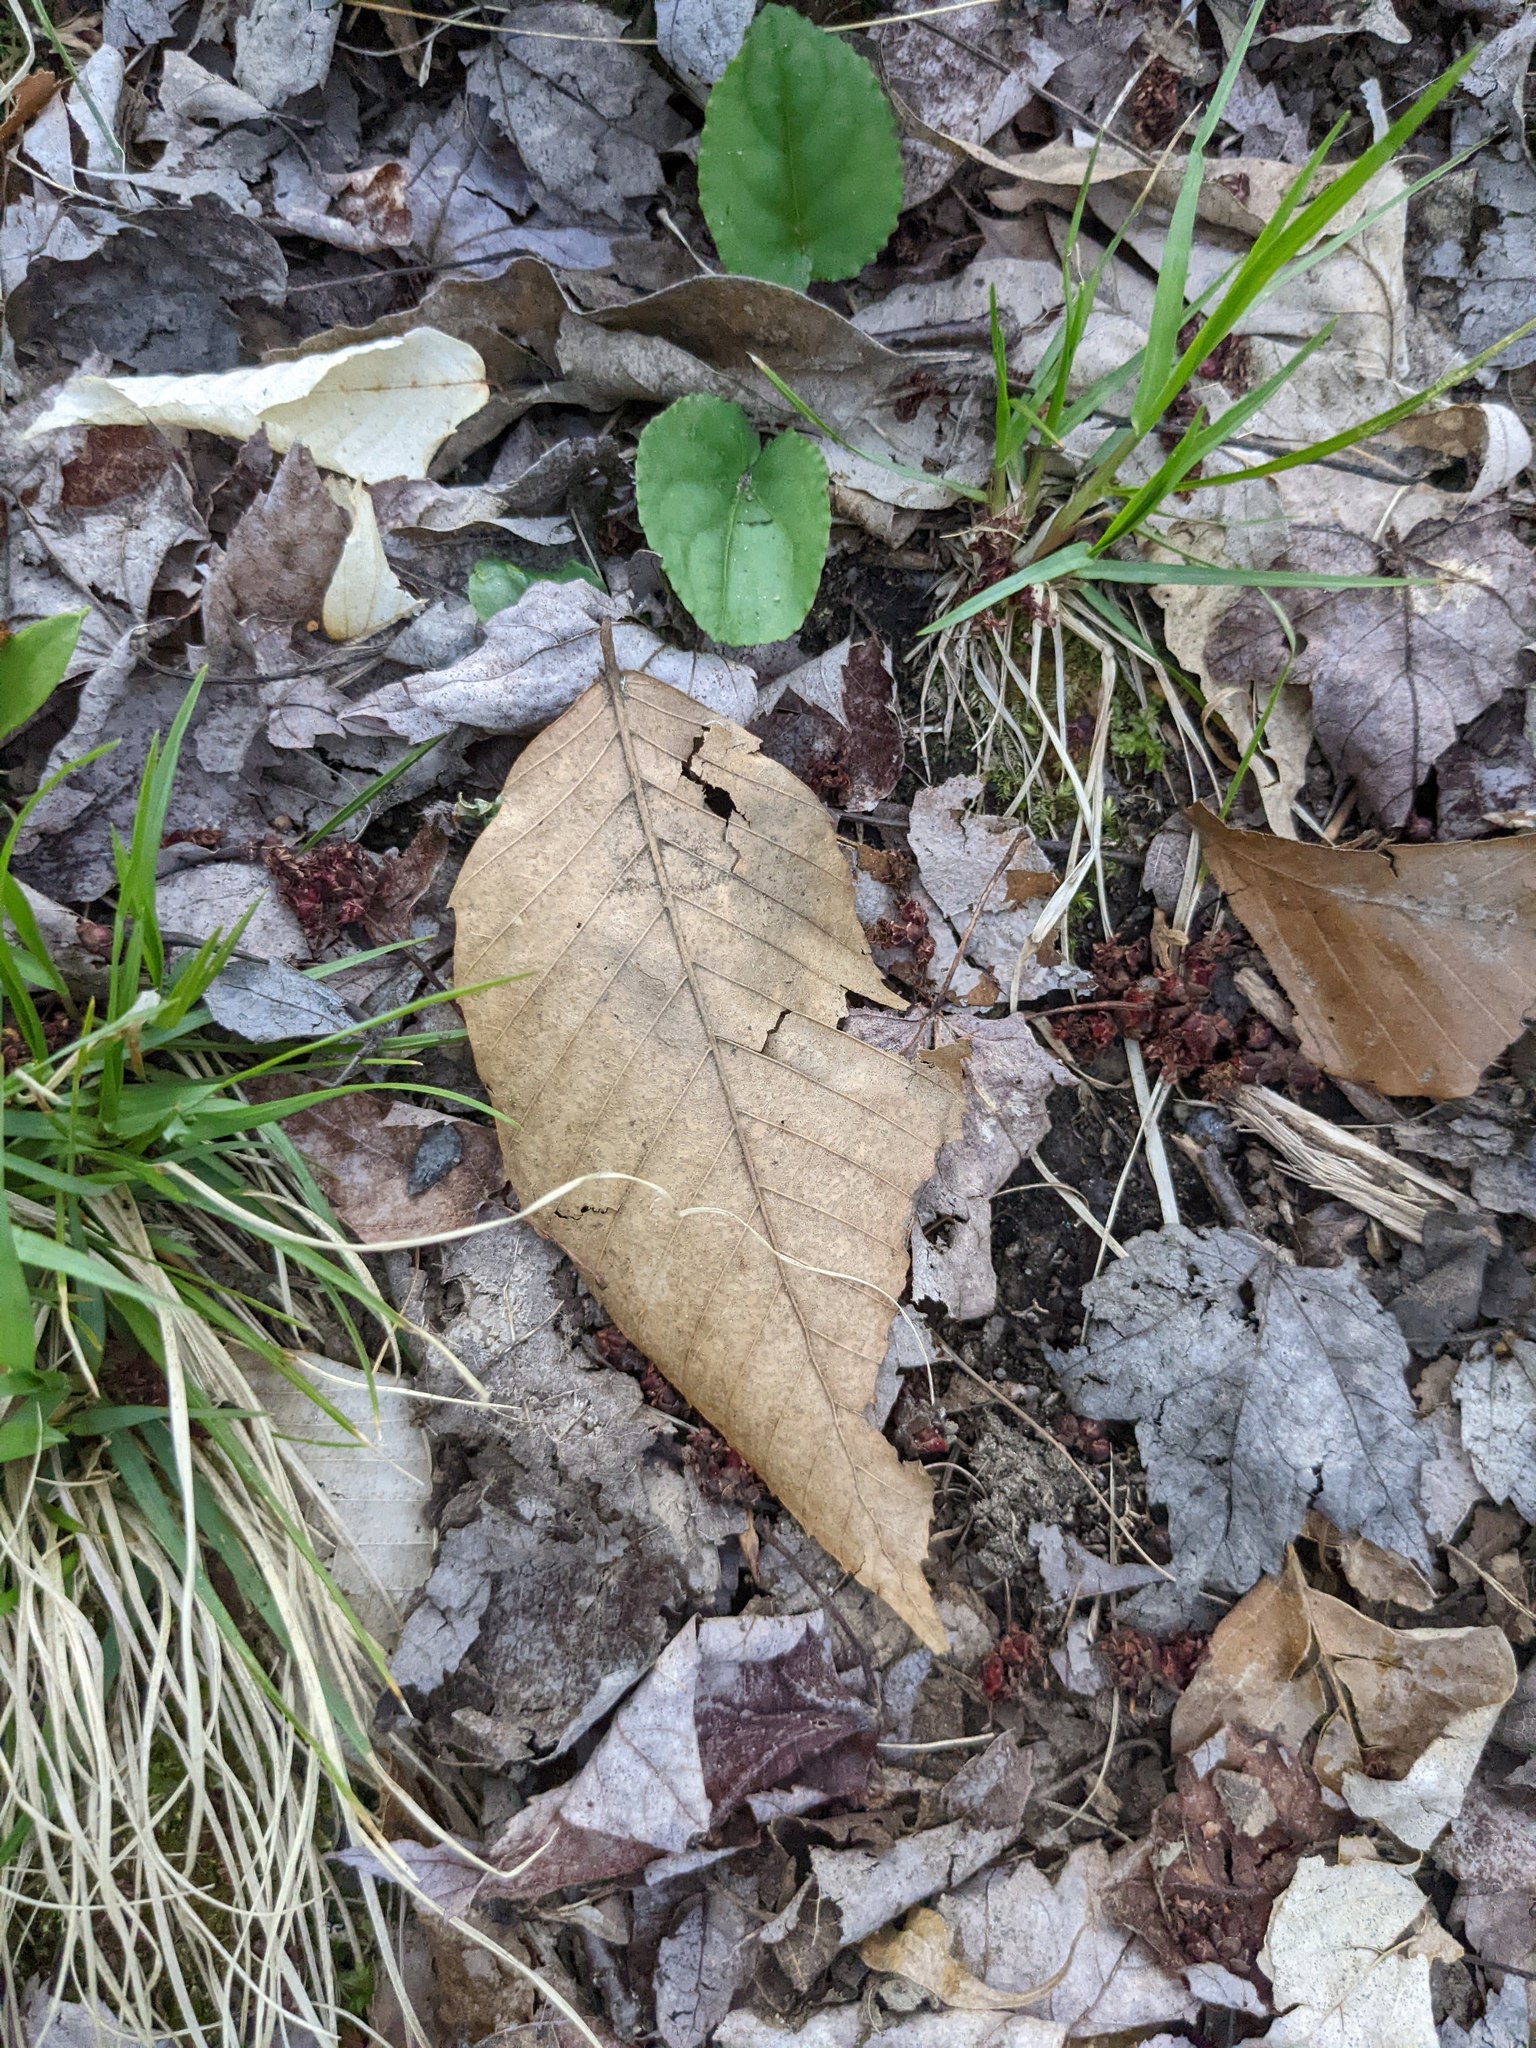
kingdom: Plantae
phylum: Tracheophyta
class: Magnoliopsida
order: Fagales
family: Fagaceae
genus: Fagus
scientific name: Fagus grandifolia
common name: American beech
